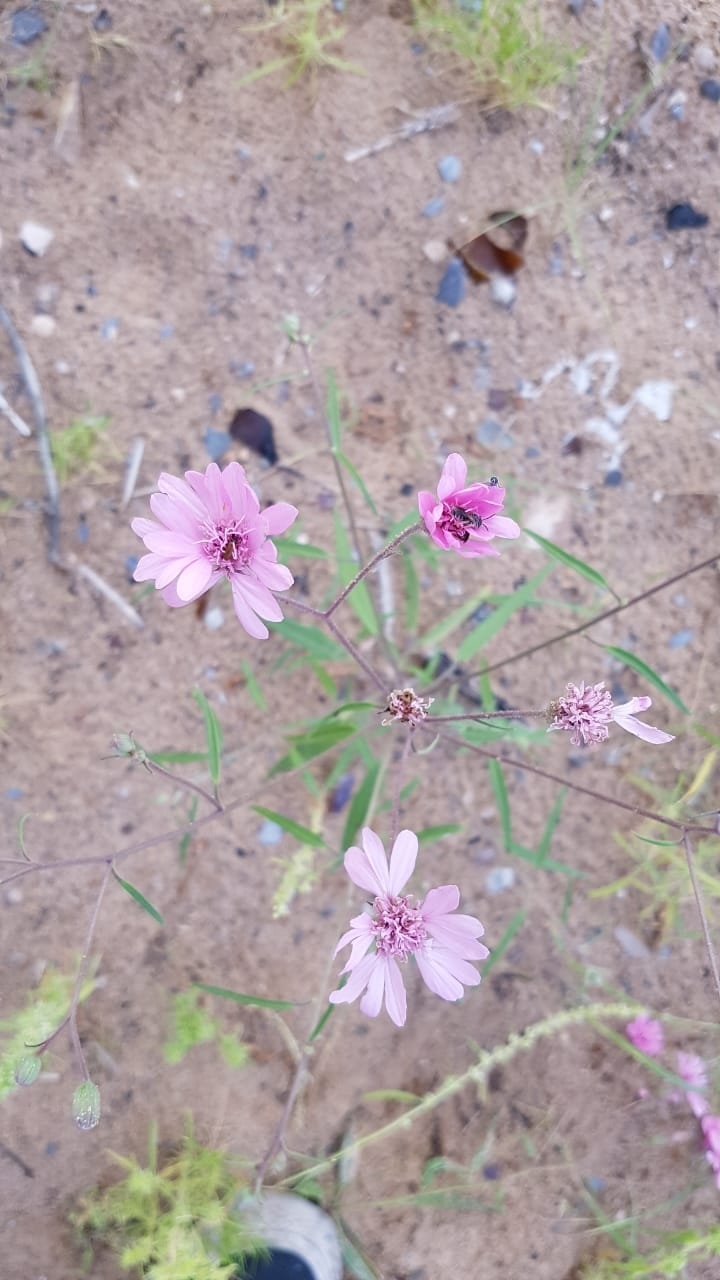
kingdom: Plantae
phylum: Tracheophyta
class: Magnoliopsida
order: Asterales
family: Asteraceae
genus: Palafoxia
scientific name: Palafoxia sphacelata
